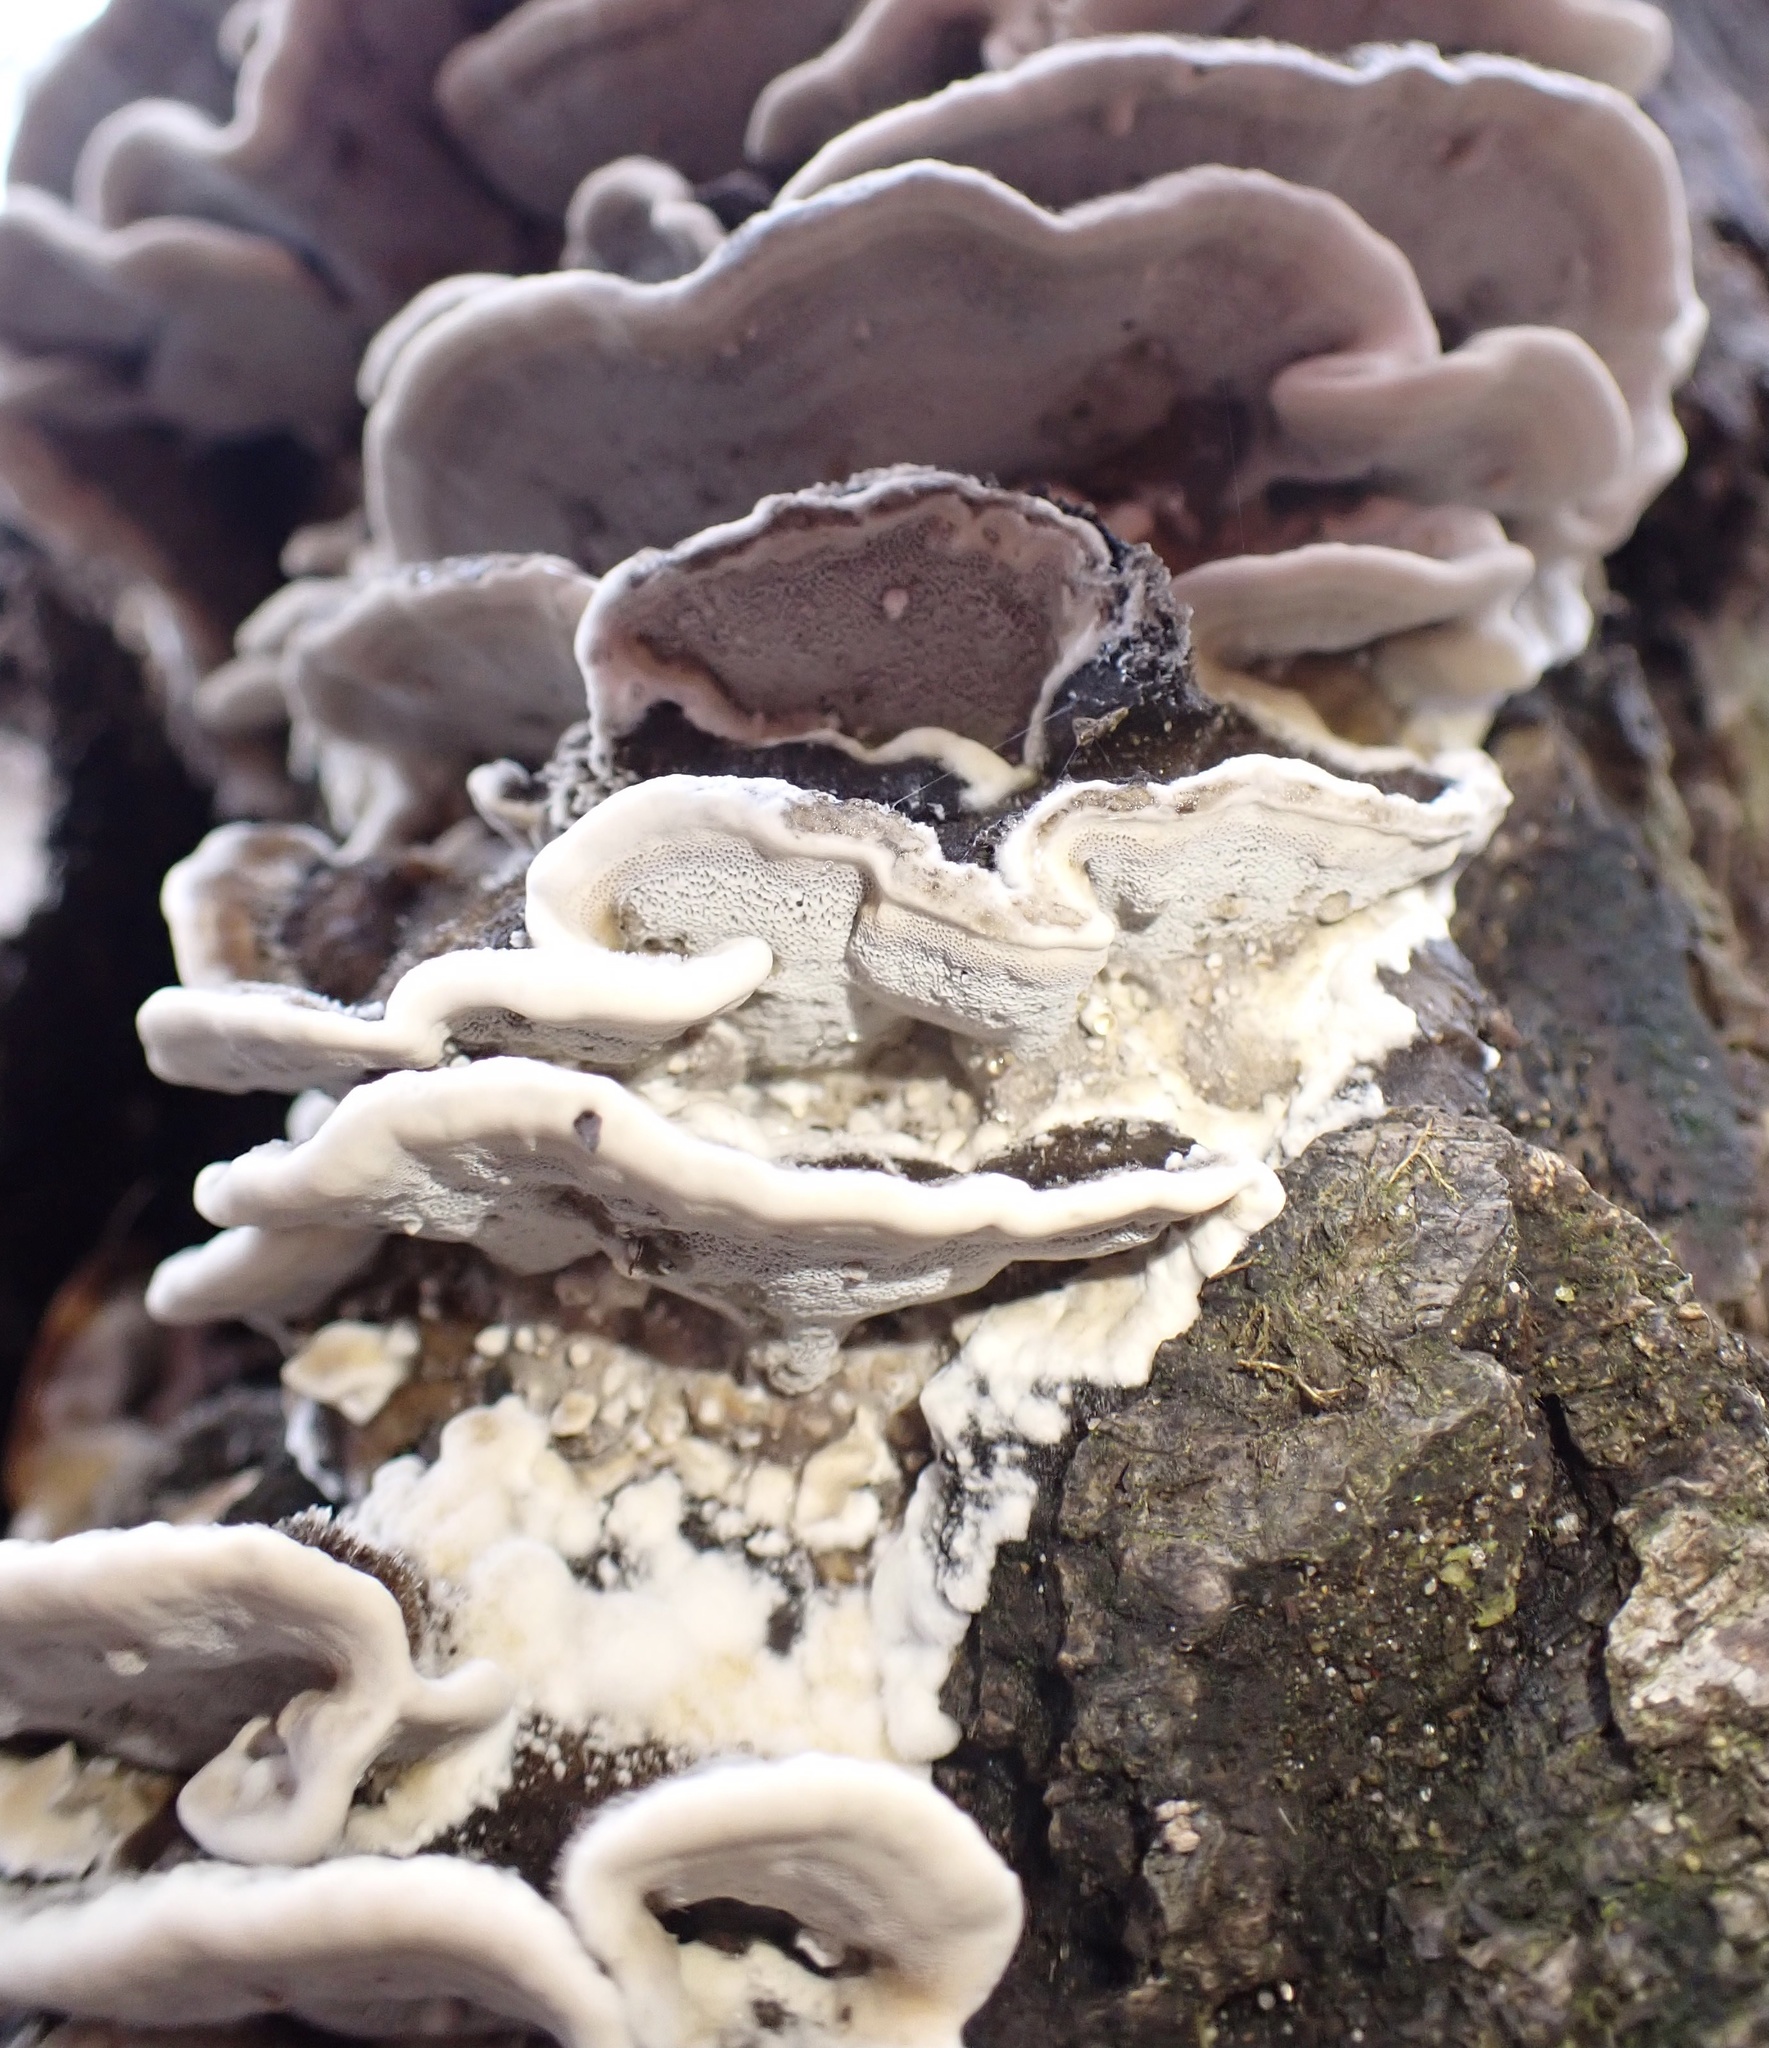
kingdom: Fungi
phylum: Basidiomycota
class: Agaricomycetes
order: Polyporales
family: Phanerochaetaceae
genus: Bjerkandera
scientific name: Bjerkandera adusta
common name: Smoky bracket
